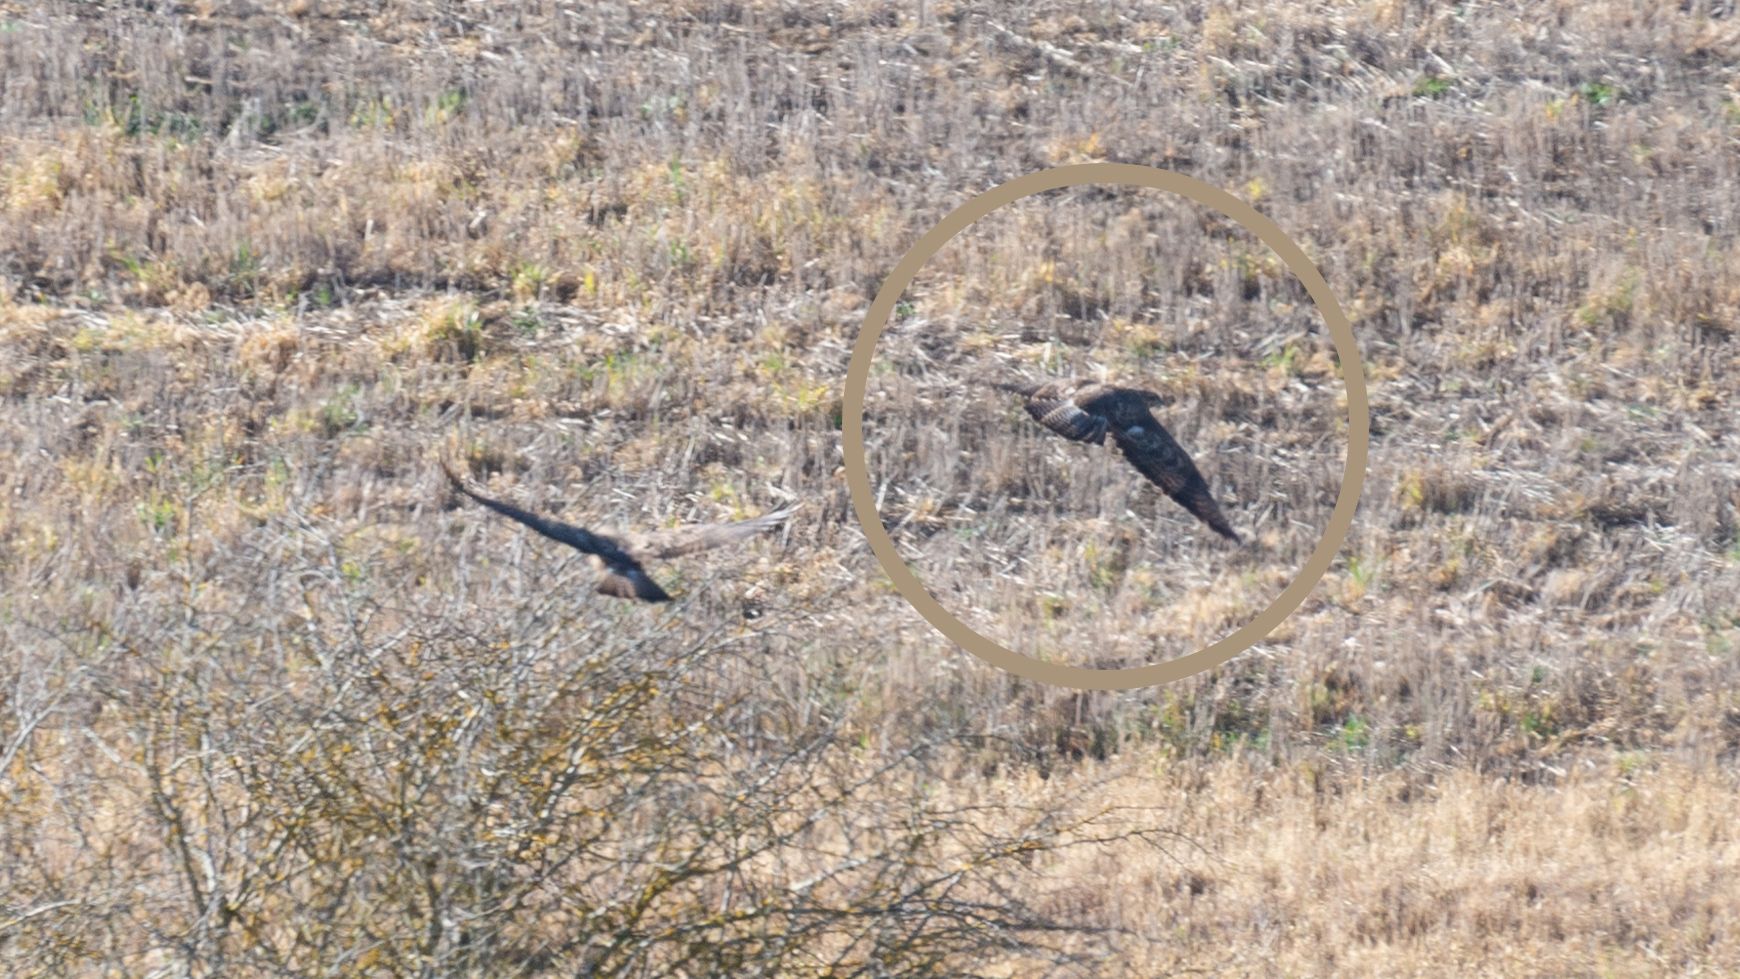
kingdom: Animalia
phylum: Chordata
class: Aves
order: Accipitriformes
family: Accipitridae
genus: Buteo
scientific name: Buteo buteo
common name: Common buzzard
